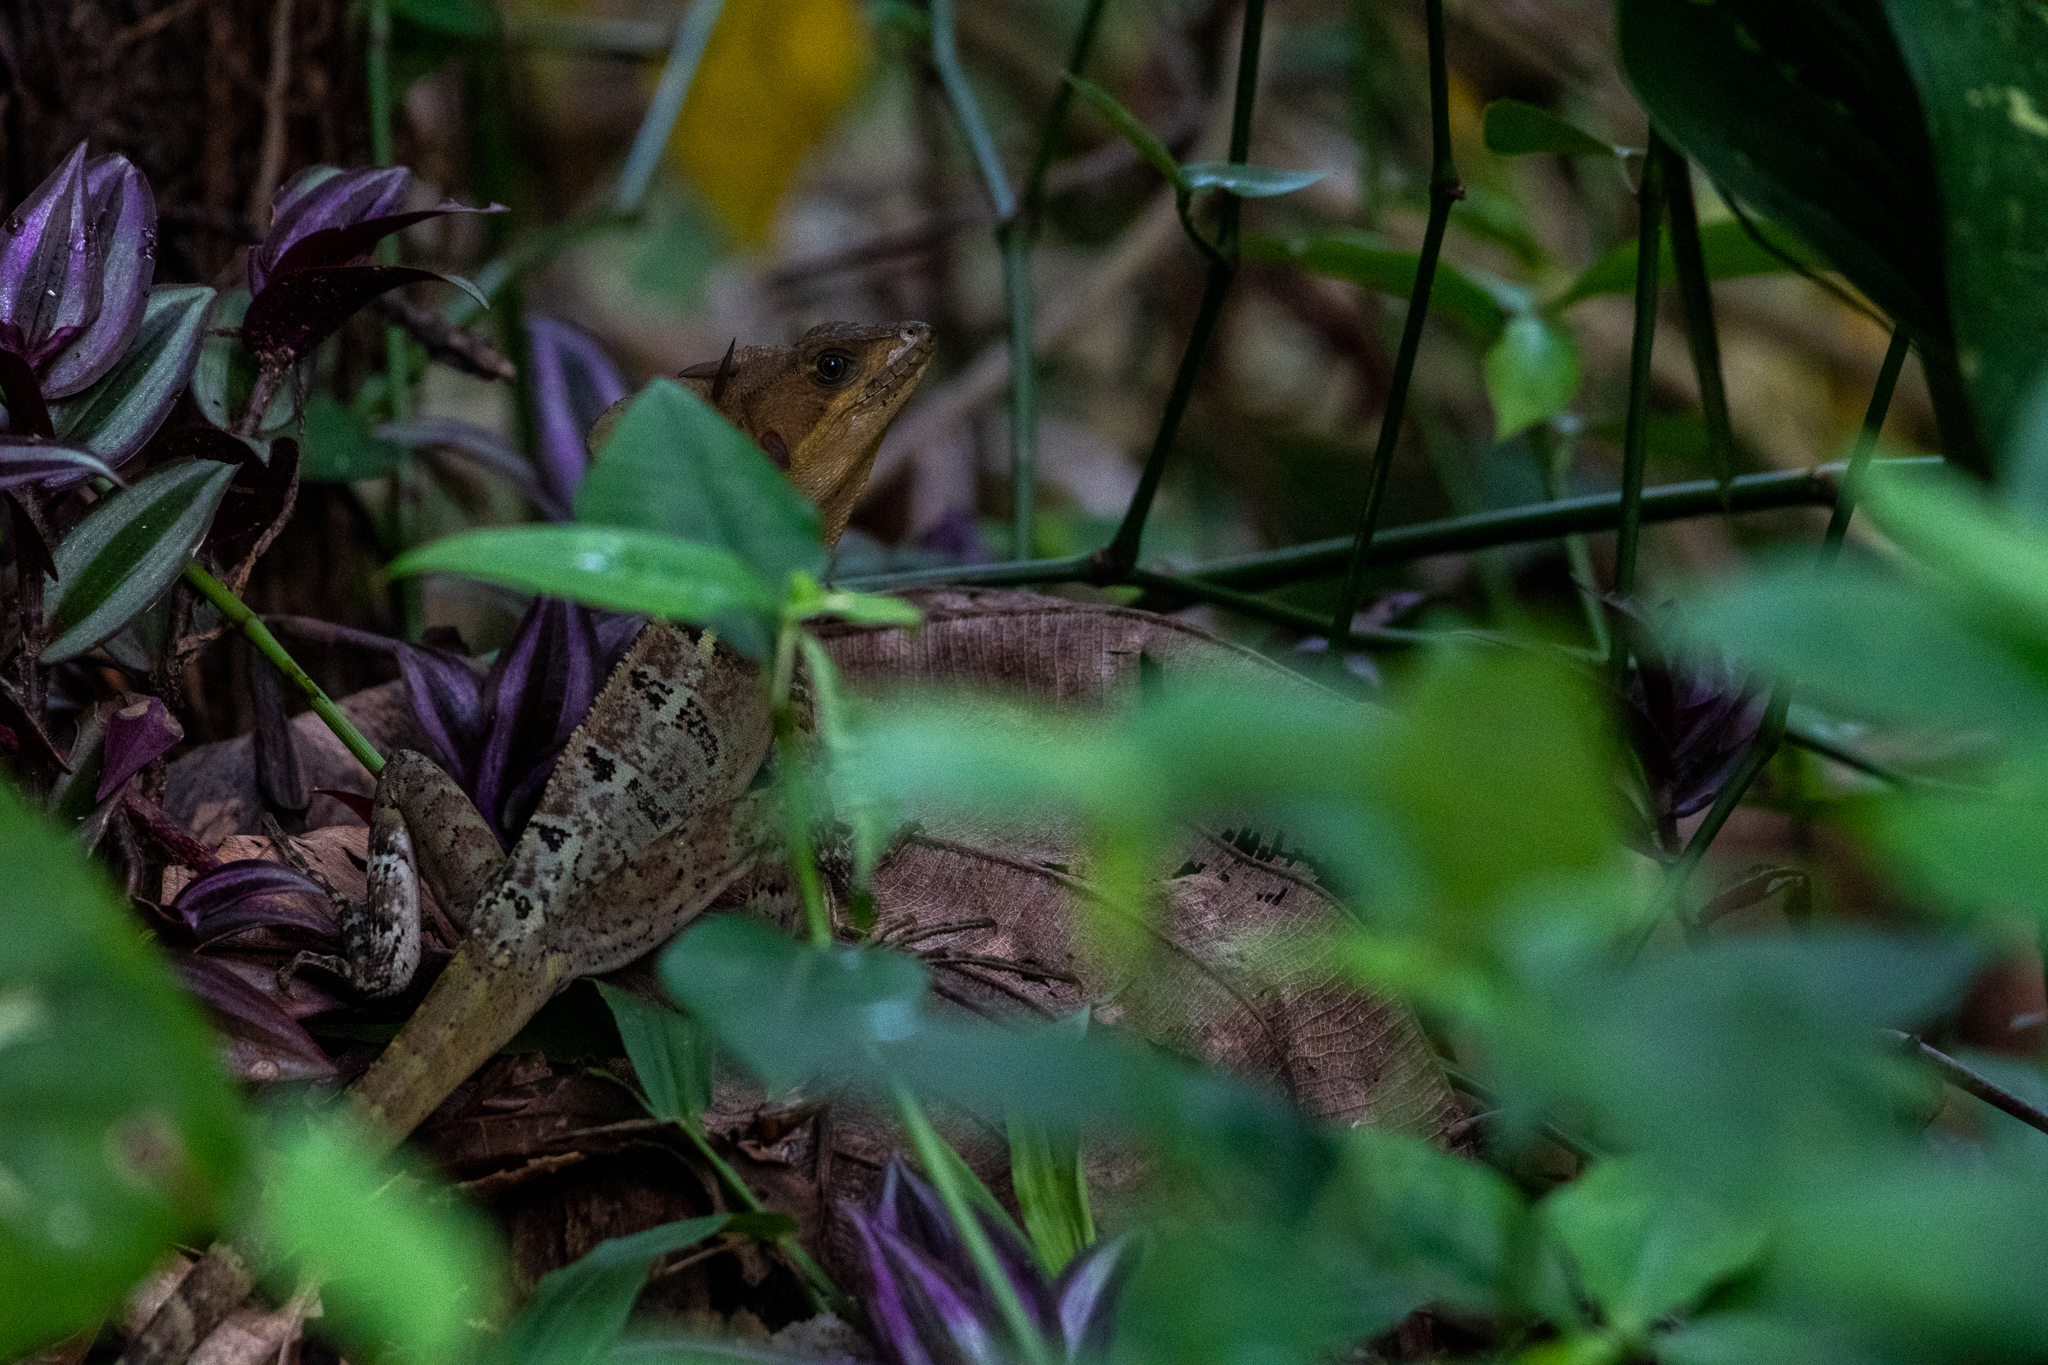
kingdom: Animalia
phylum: Chordata
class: Squamata
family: Corytophanidae
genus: Basiliscus
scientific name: Basiliscus vittatus
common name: Brown basilisk
